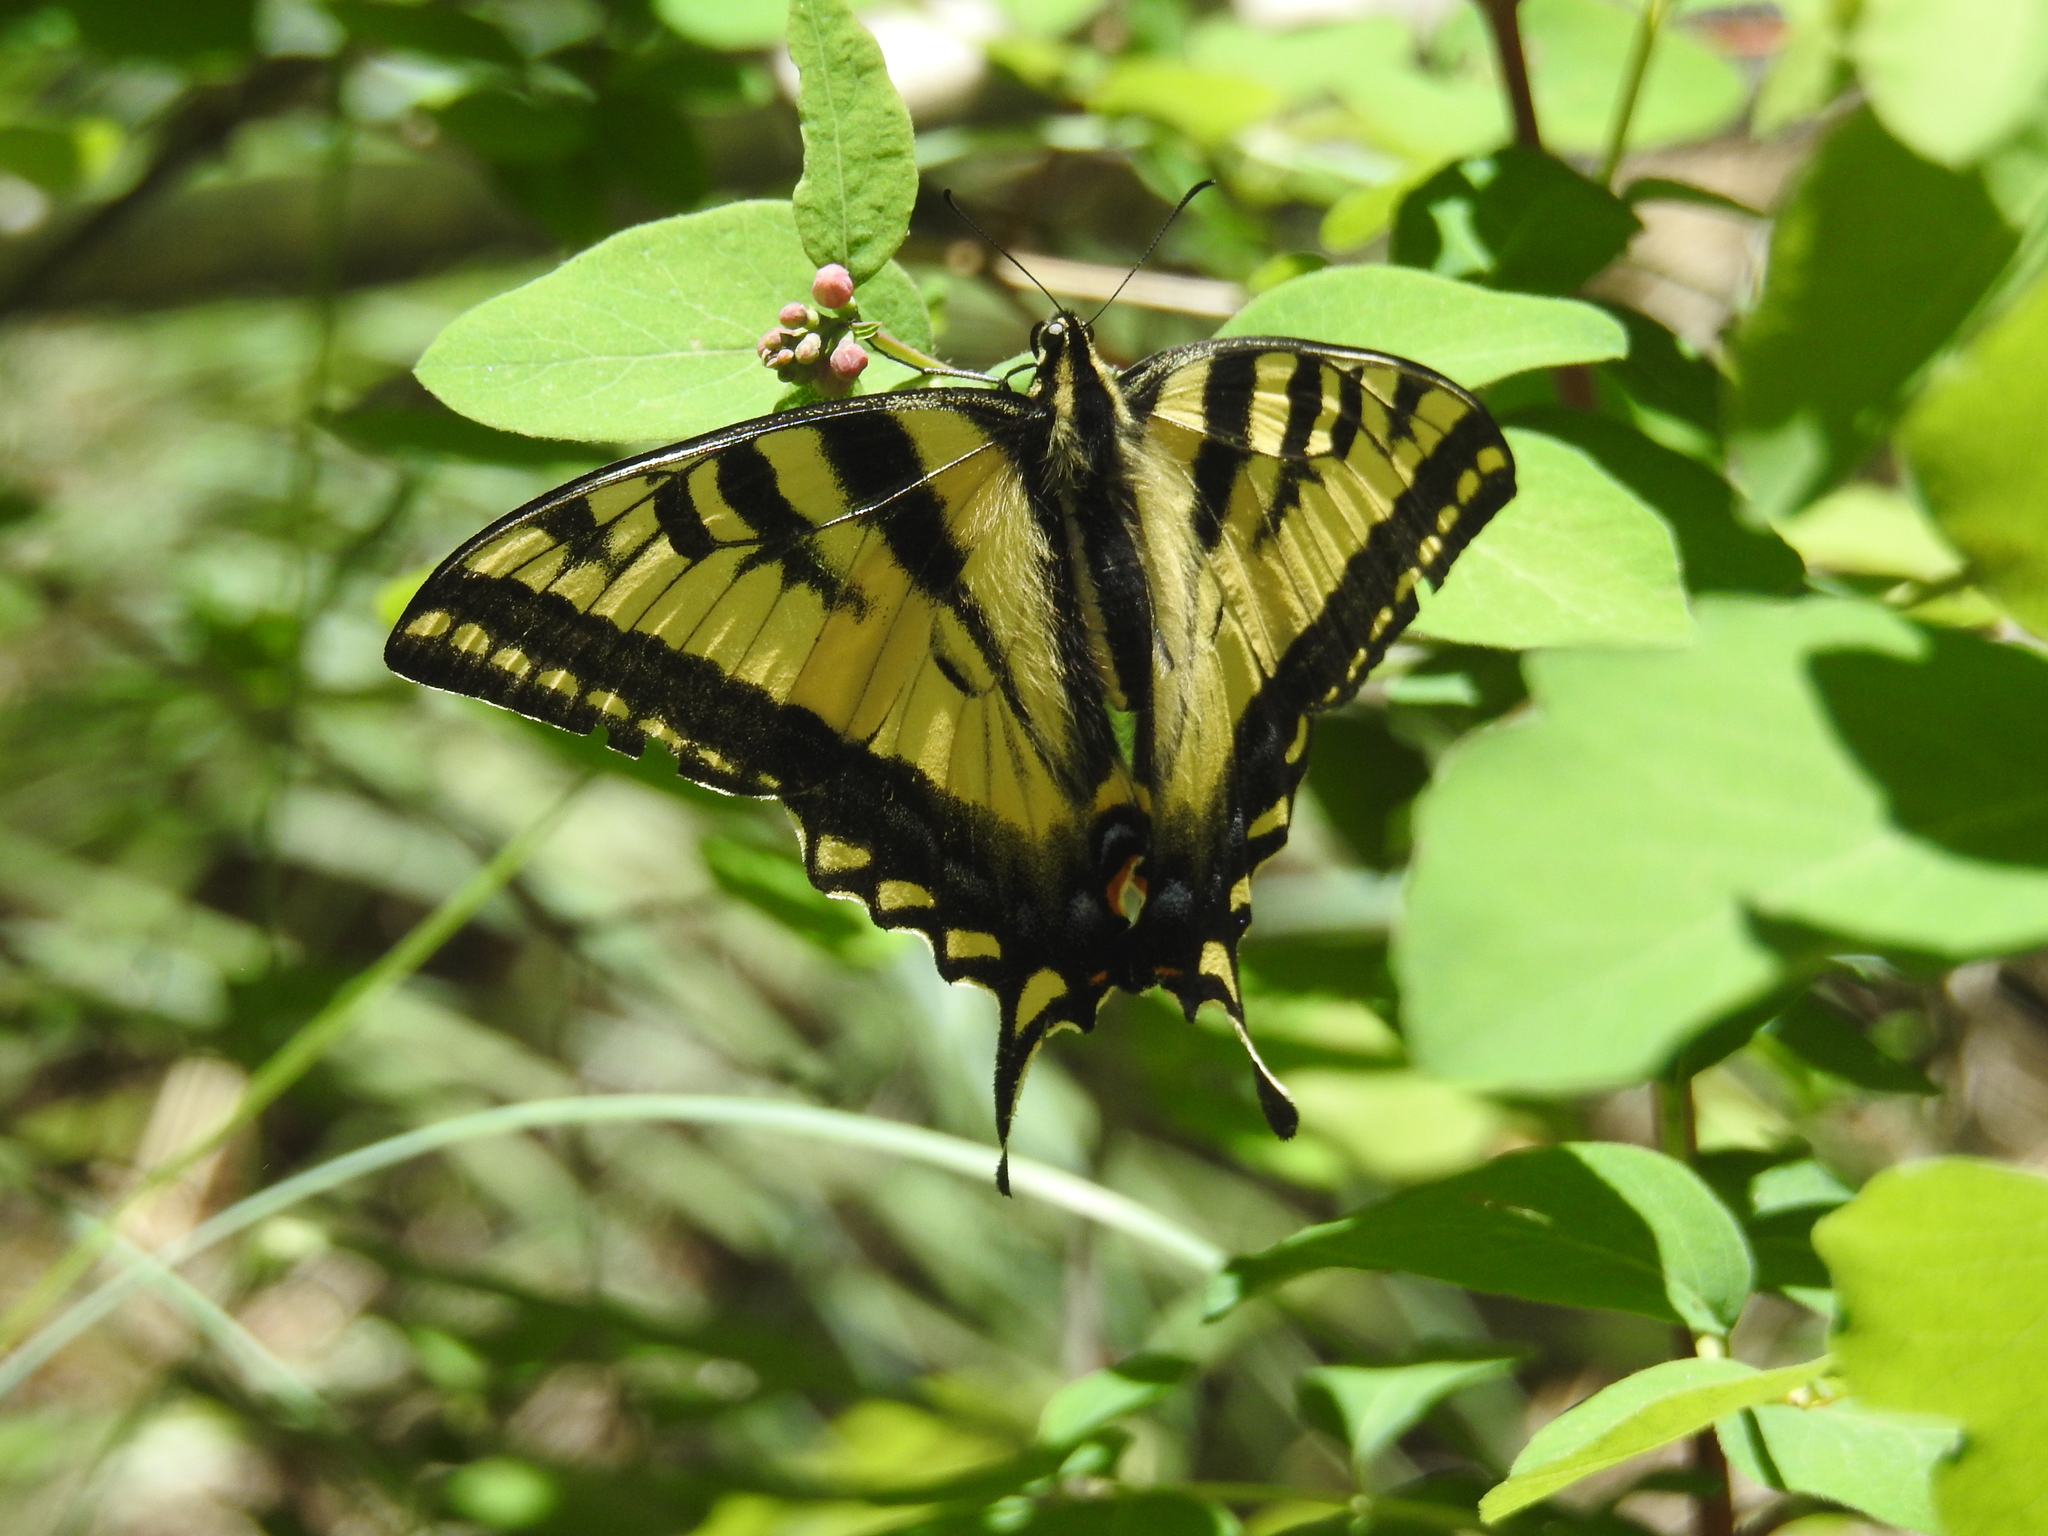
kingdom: Animalia
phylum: Arthropoda
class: Insecta
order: Lepidoptera
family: Papilionidae
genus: Papilio
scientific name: Papilio rutulus
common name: Western tiger swallowtail
